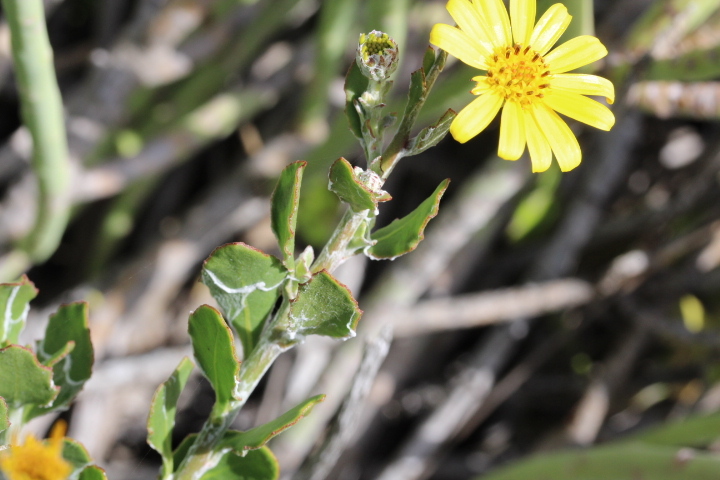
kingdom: Plantae
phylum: Tracheophyta
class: Magnoliopsida
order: Asterales
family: Asteraceae
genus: Osteospermum
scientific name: Osteospermum moniliferum
